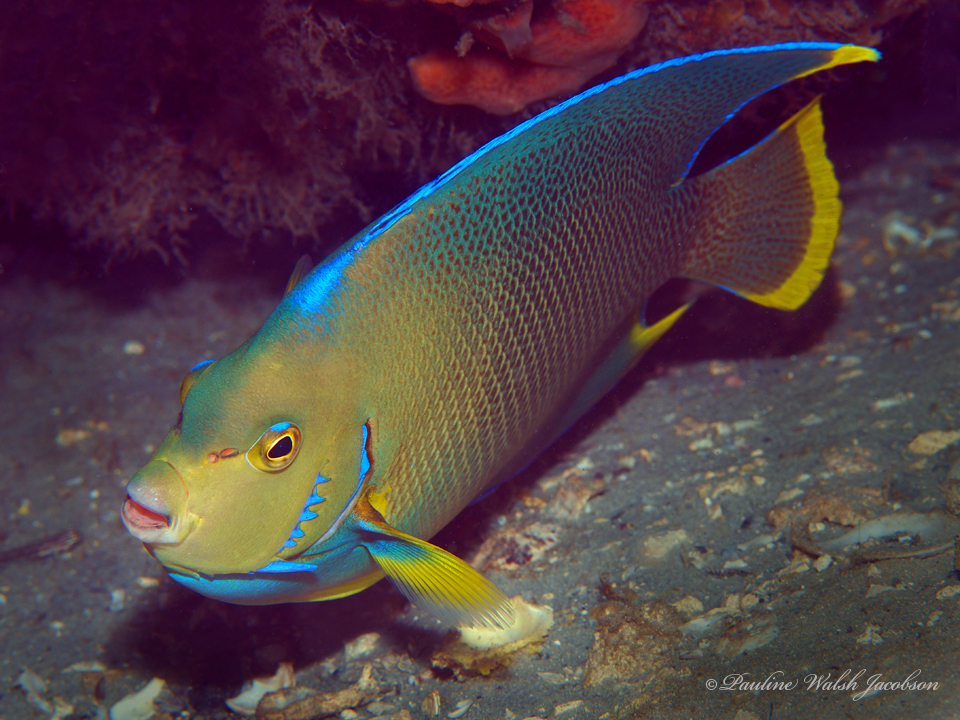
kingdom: Animalia
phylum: Chordata
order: Perciformes
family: Pomacanthidae
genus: Holacanthus
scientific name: Holacanthus bermudensis
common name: Blue angelfish
